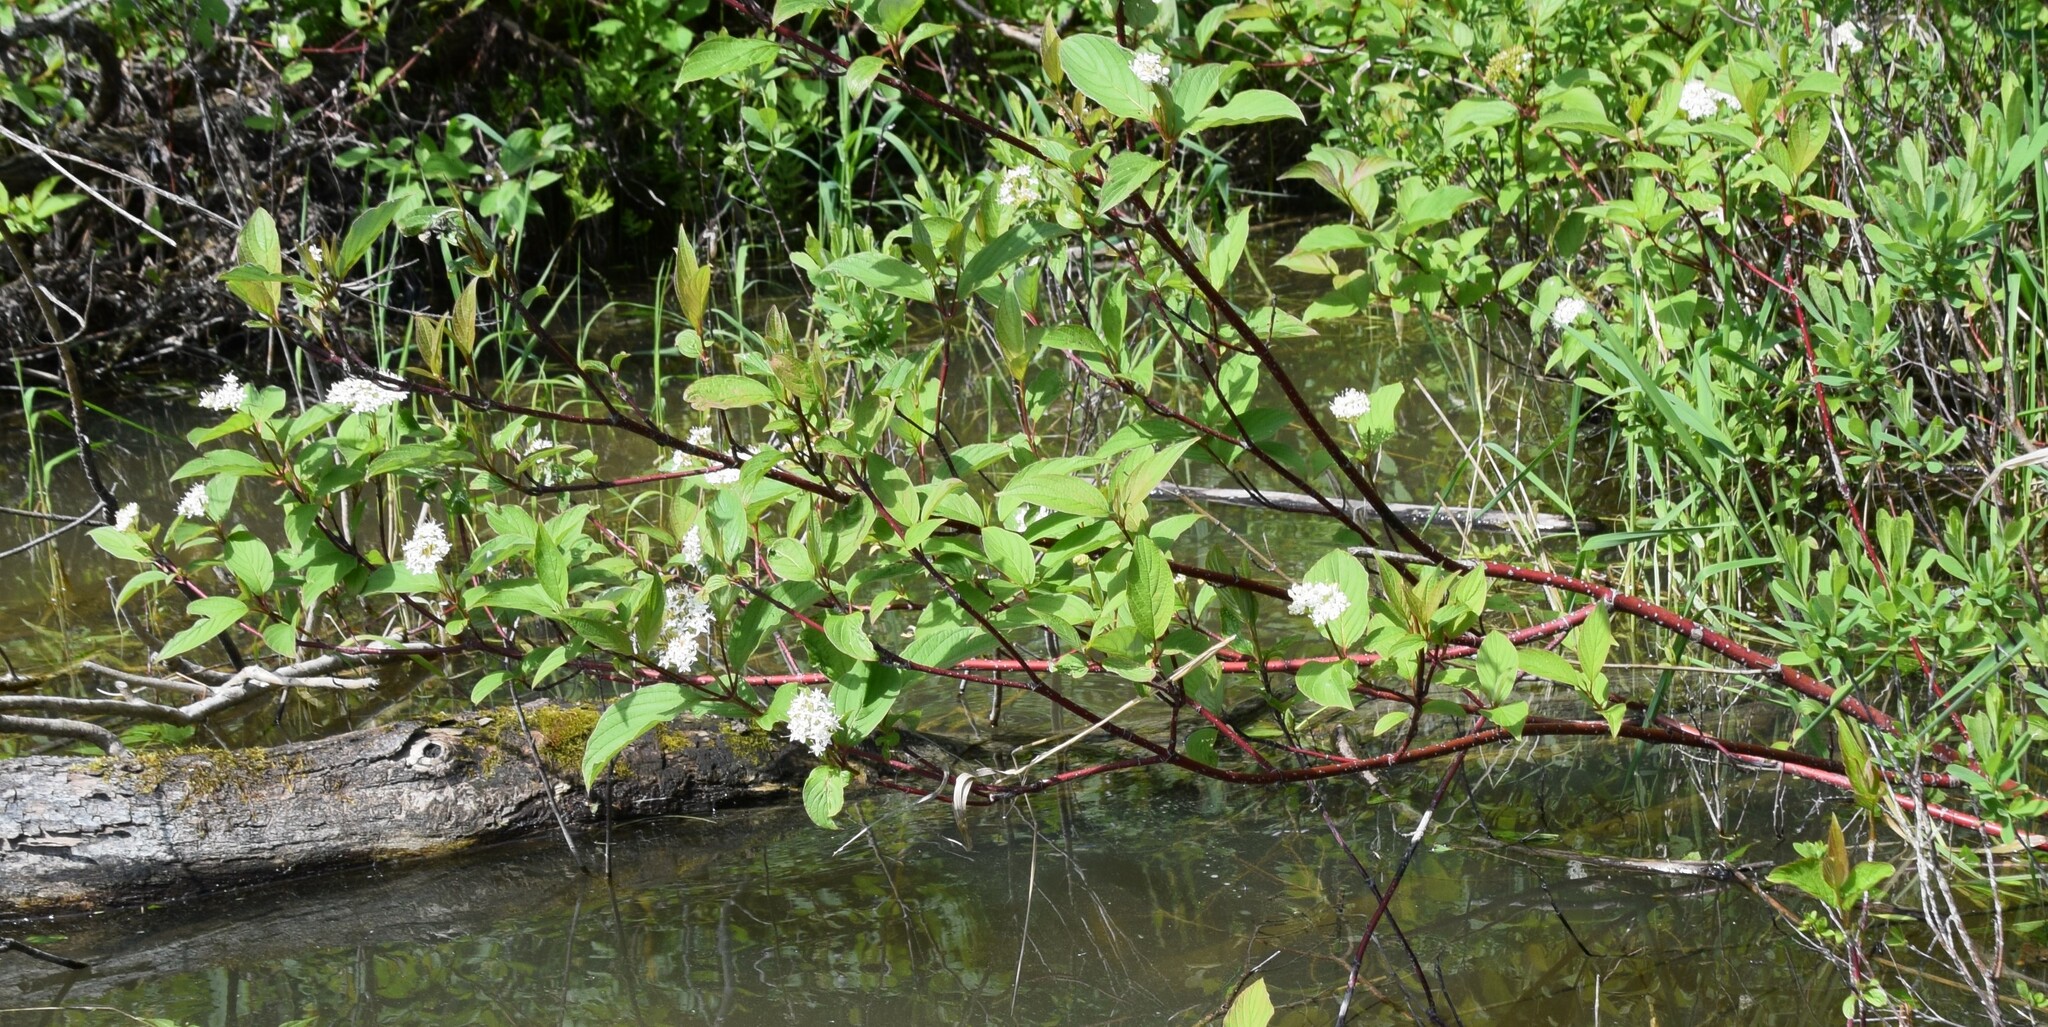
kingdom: Plantae
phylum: Tracheophyta
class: Magnoliopsida
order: Cornales
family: Cornaceae
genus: Cornus
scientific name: Cornus sericea
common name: Red-osier dogwood
